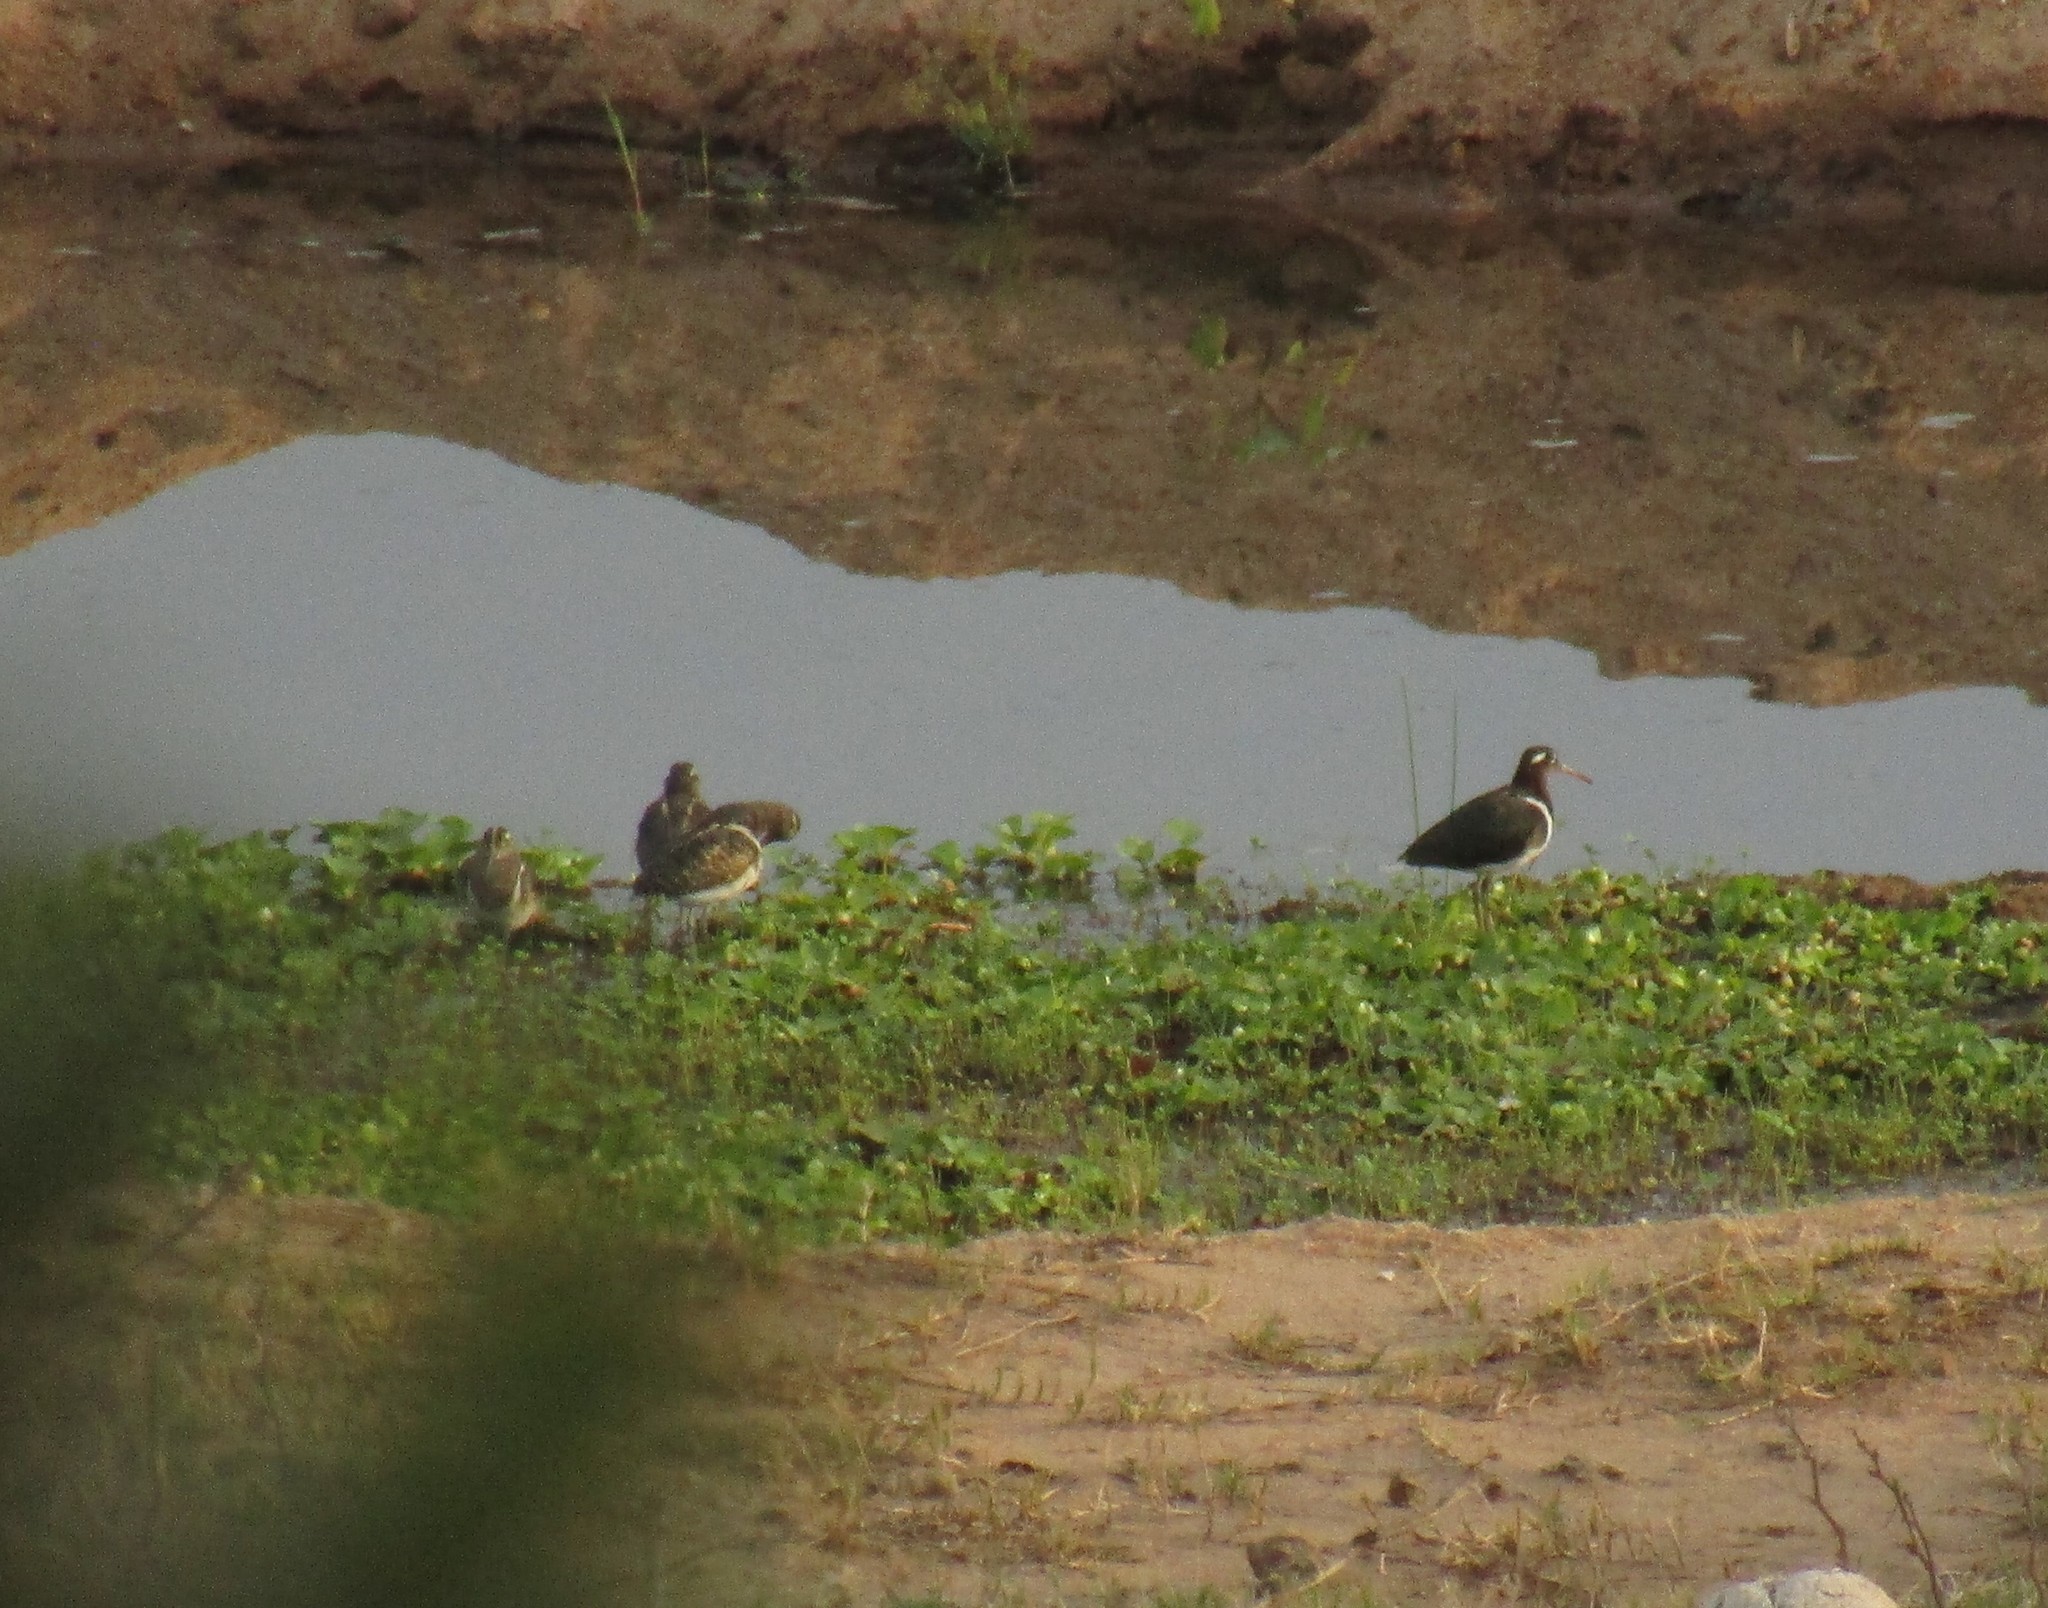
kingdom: Animalia
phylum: Chordata
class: Aves
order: Charadriiformes
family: Rostratulidae
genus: Rostratula
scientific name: Rostratula benghalensis
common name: Greater painted-snipe
